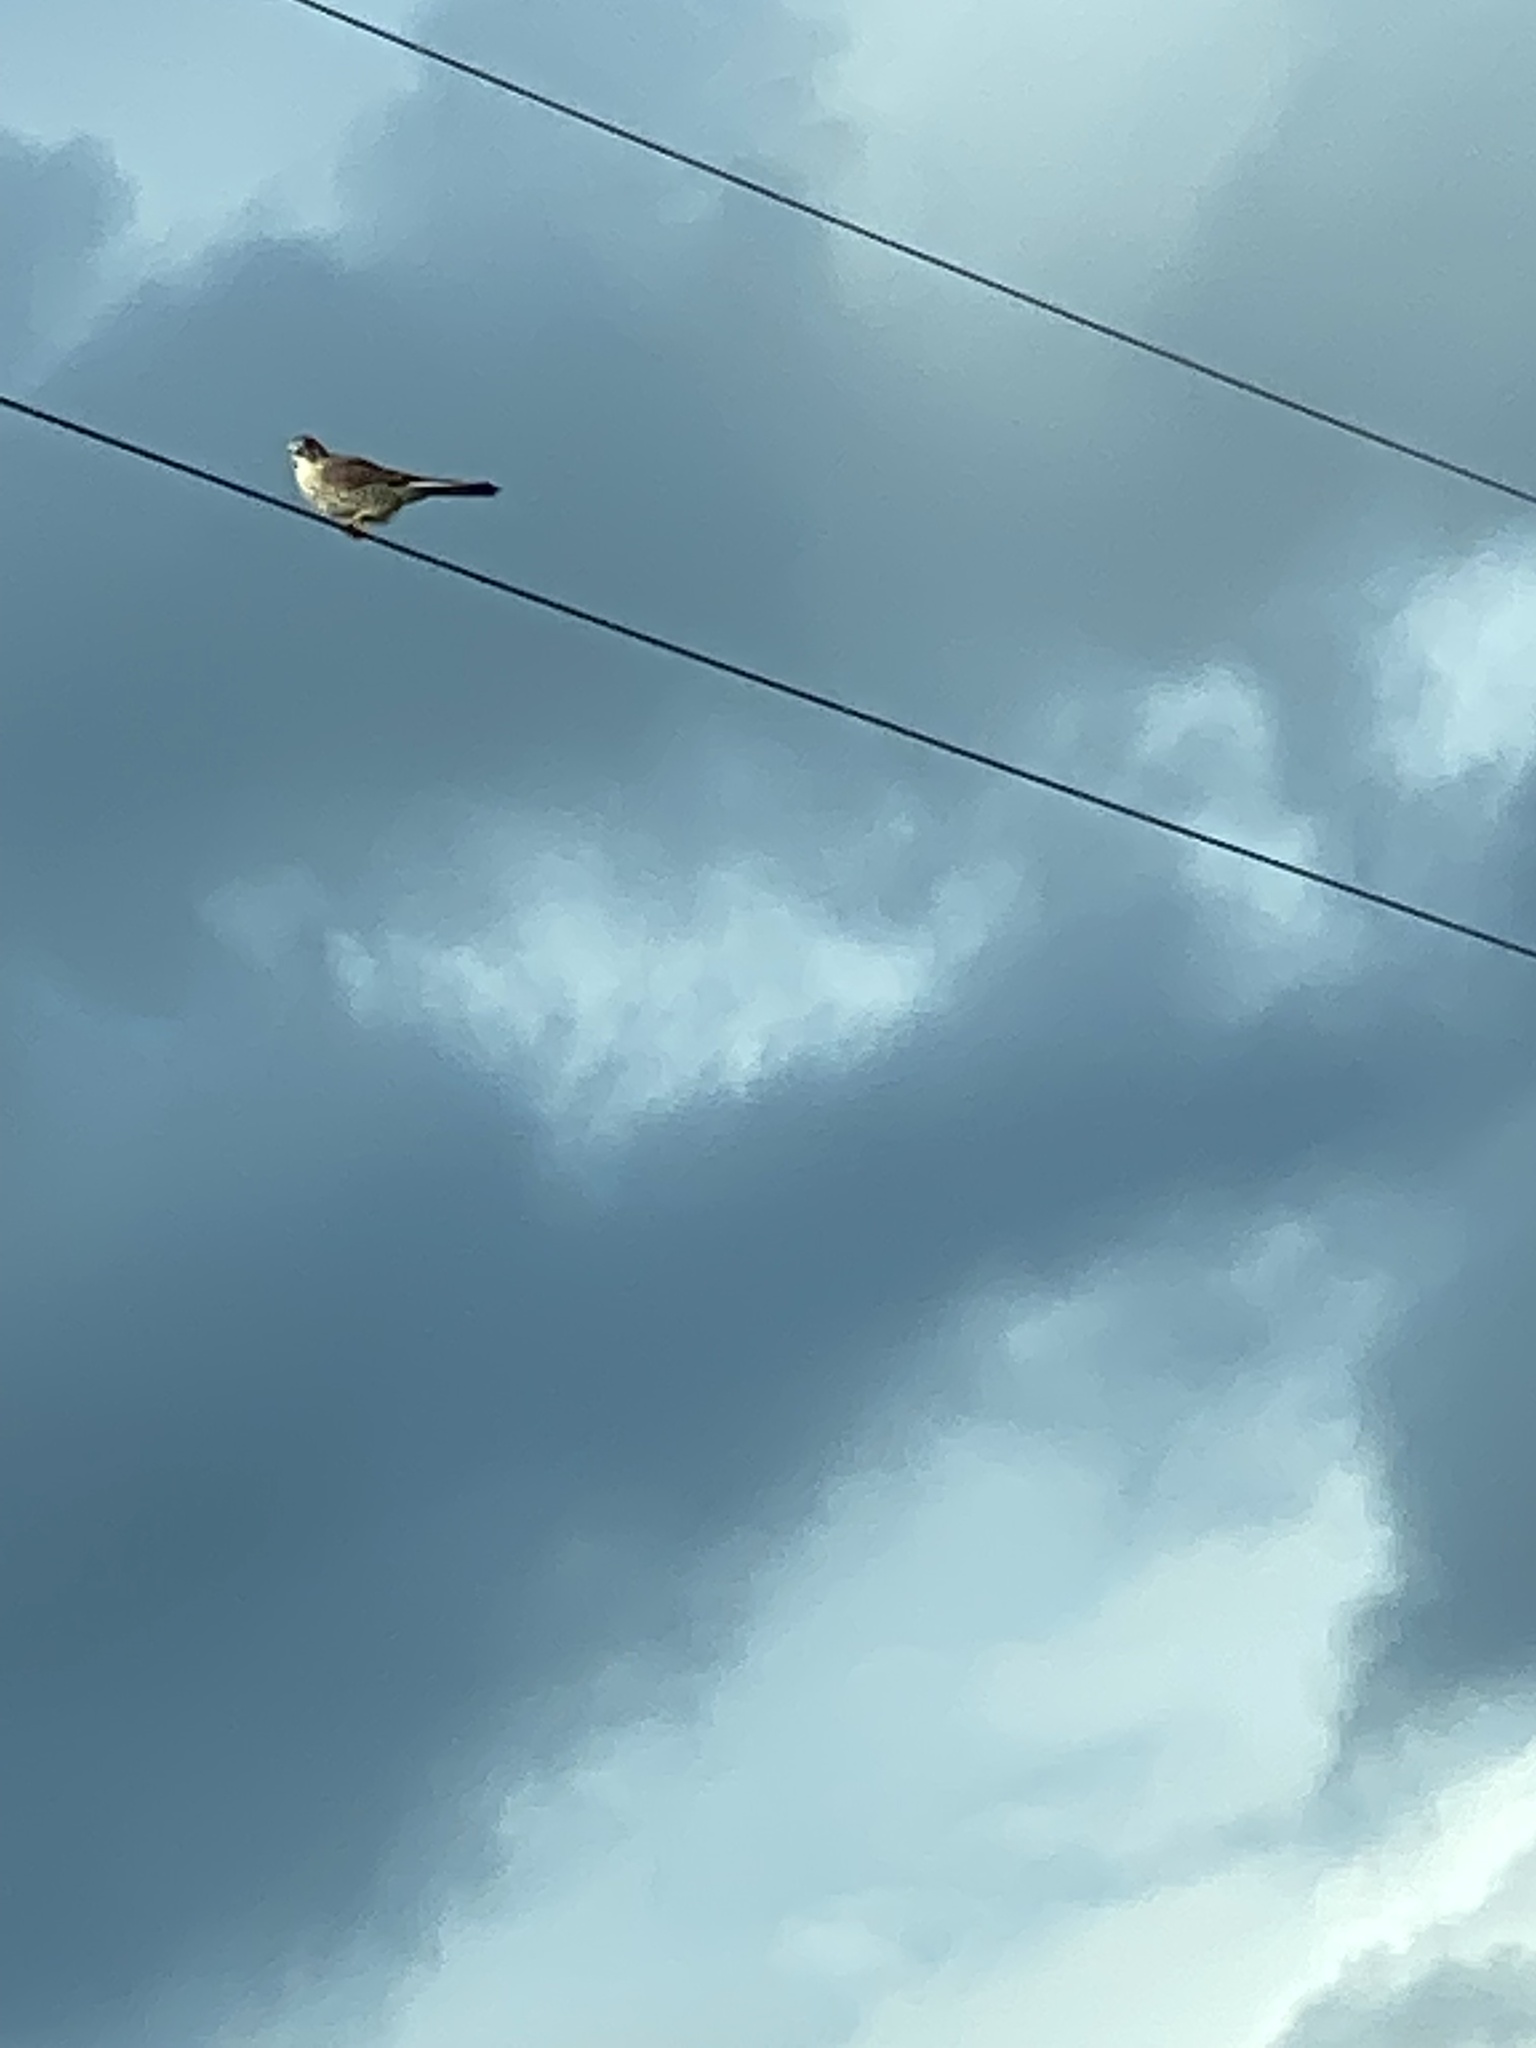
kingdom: Animalia
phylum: Chordata
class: Aves
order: Falconiformes
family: Falconidae
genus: Falco
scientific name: Falco sparverius
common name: American kestrel
